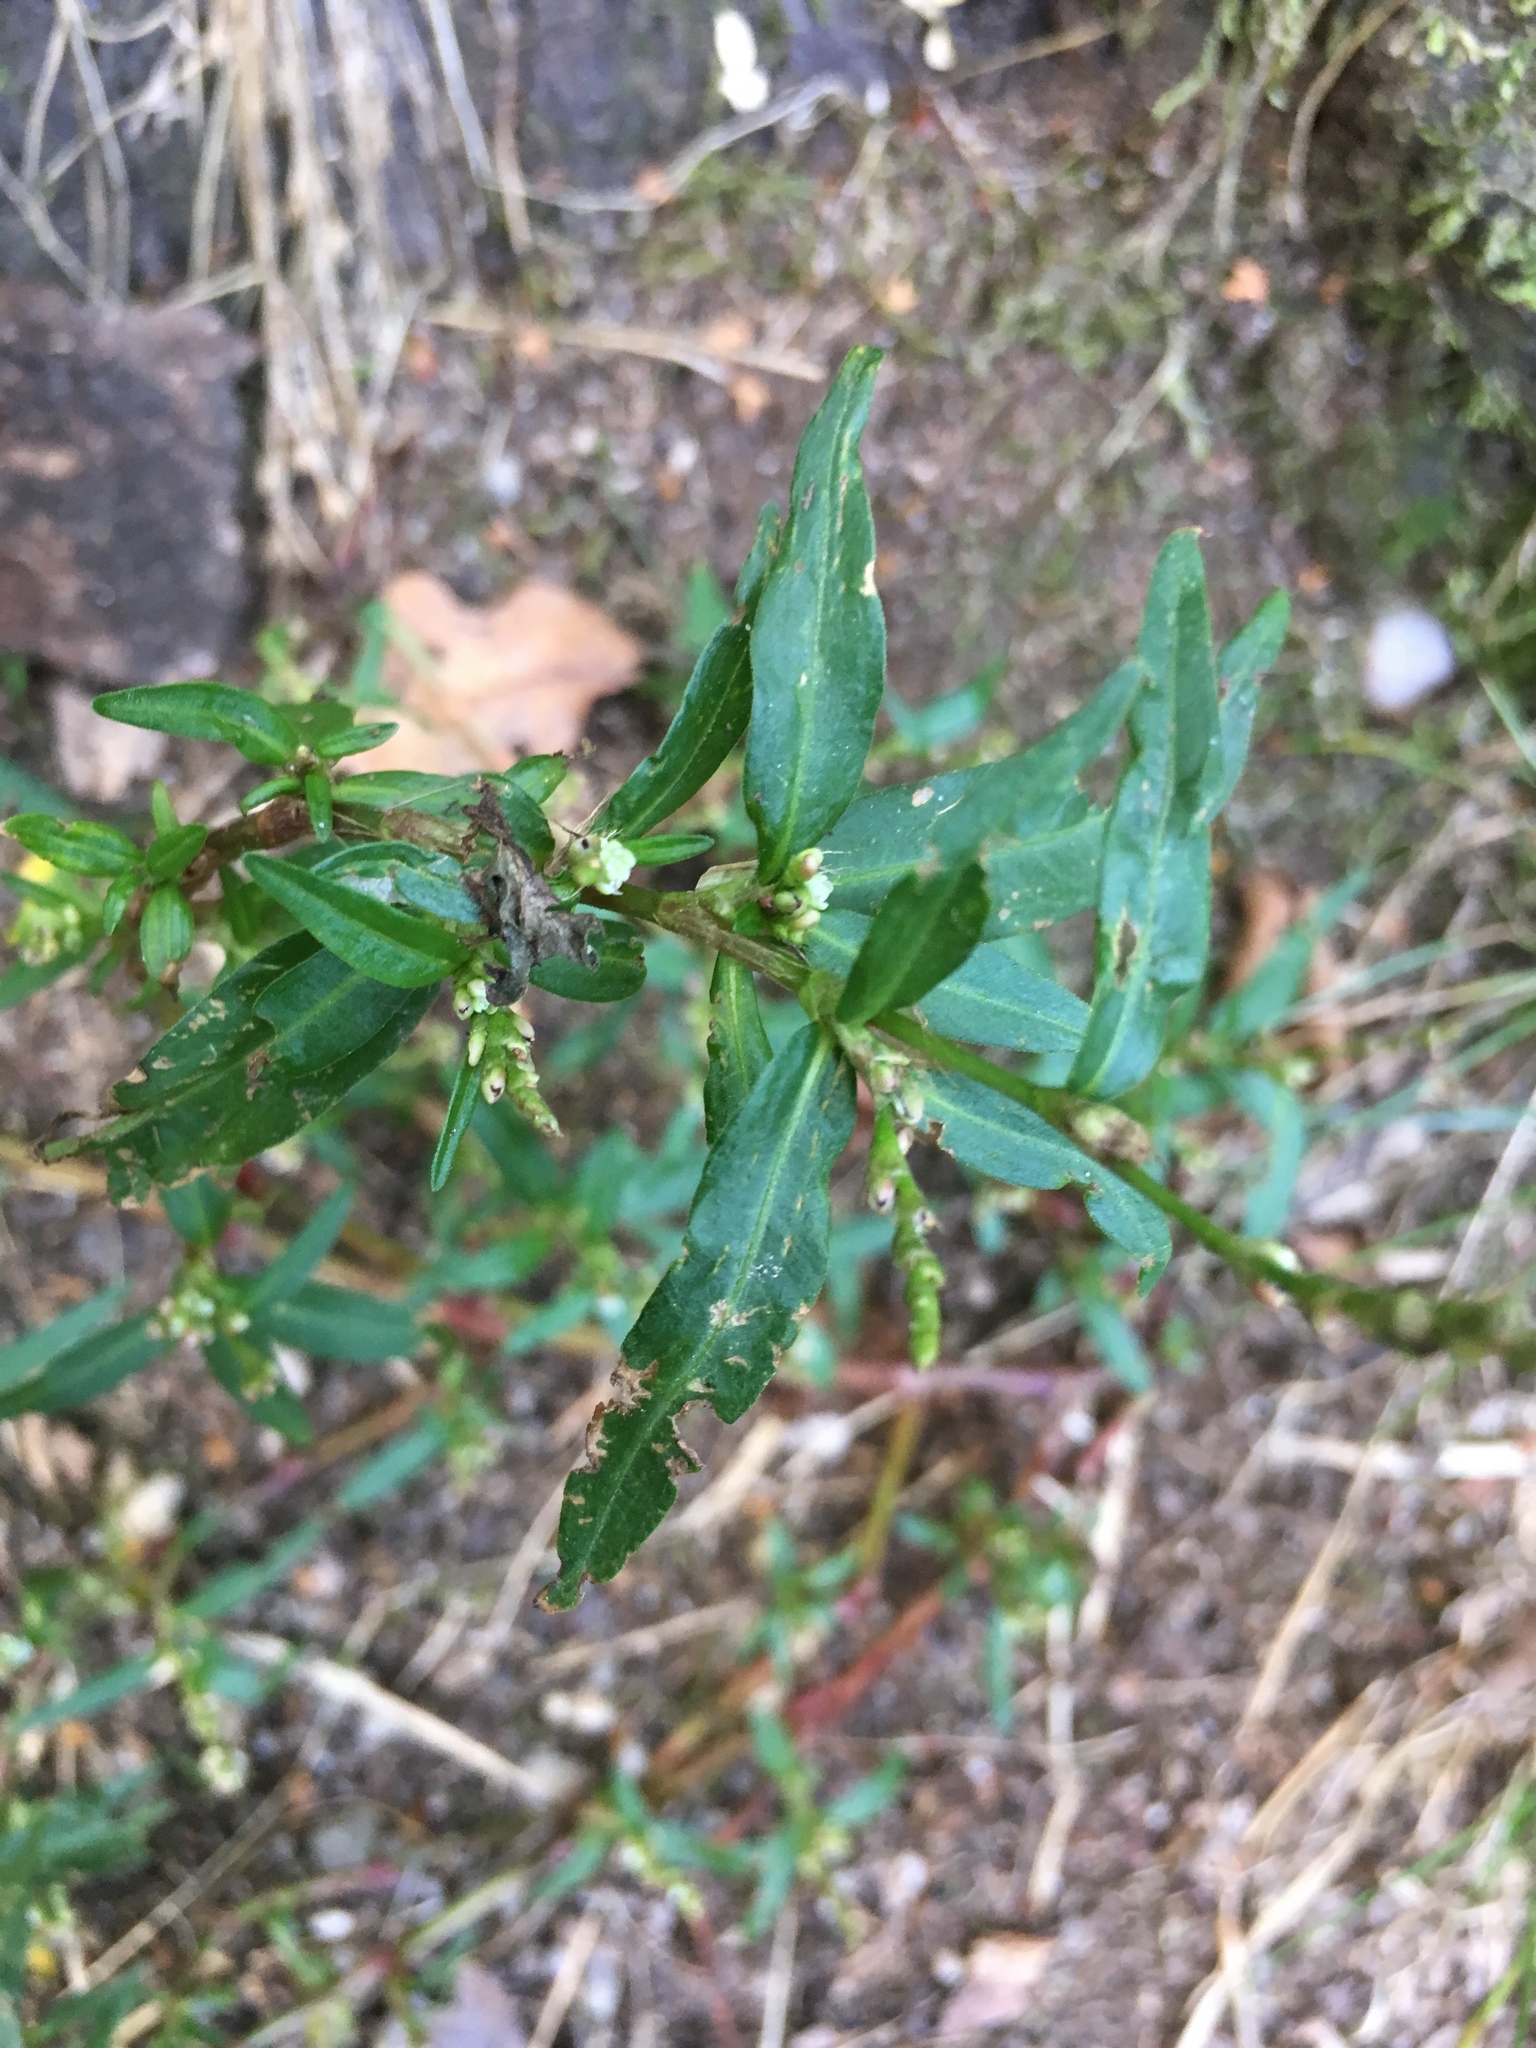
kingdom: Plantae
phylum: Tracheophyta
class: Magnoliopsida
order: Caryophyllales
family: Polygonaceae
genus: Persicaria
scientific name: Persicaria maculosa
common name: Redshank
